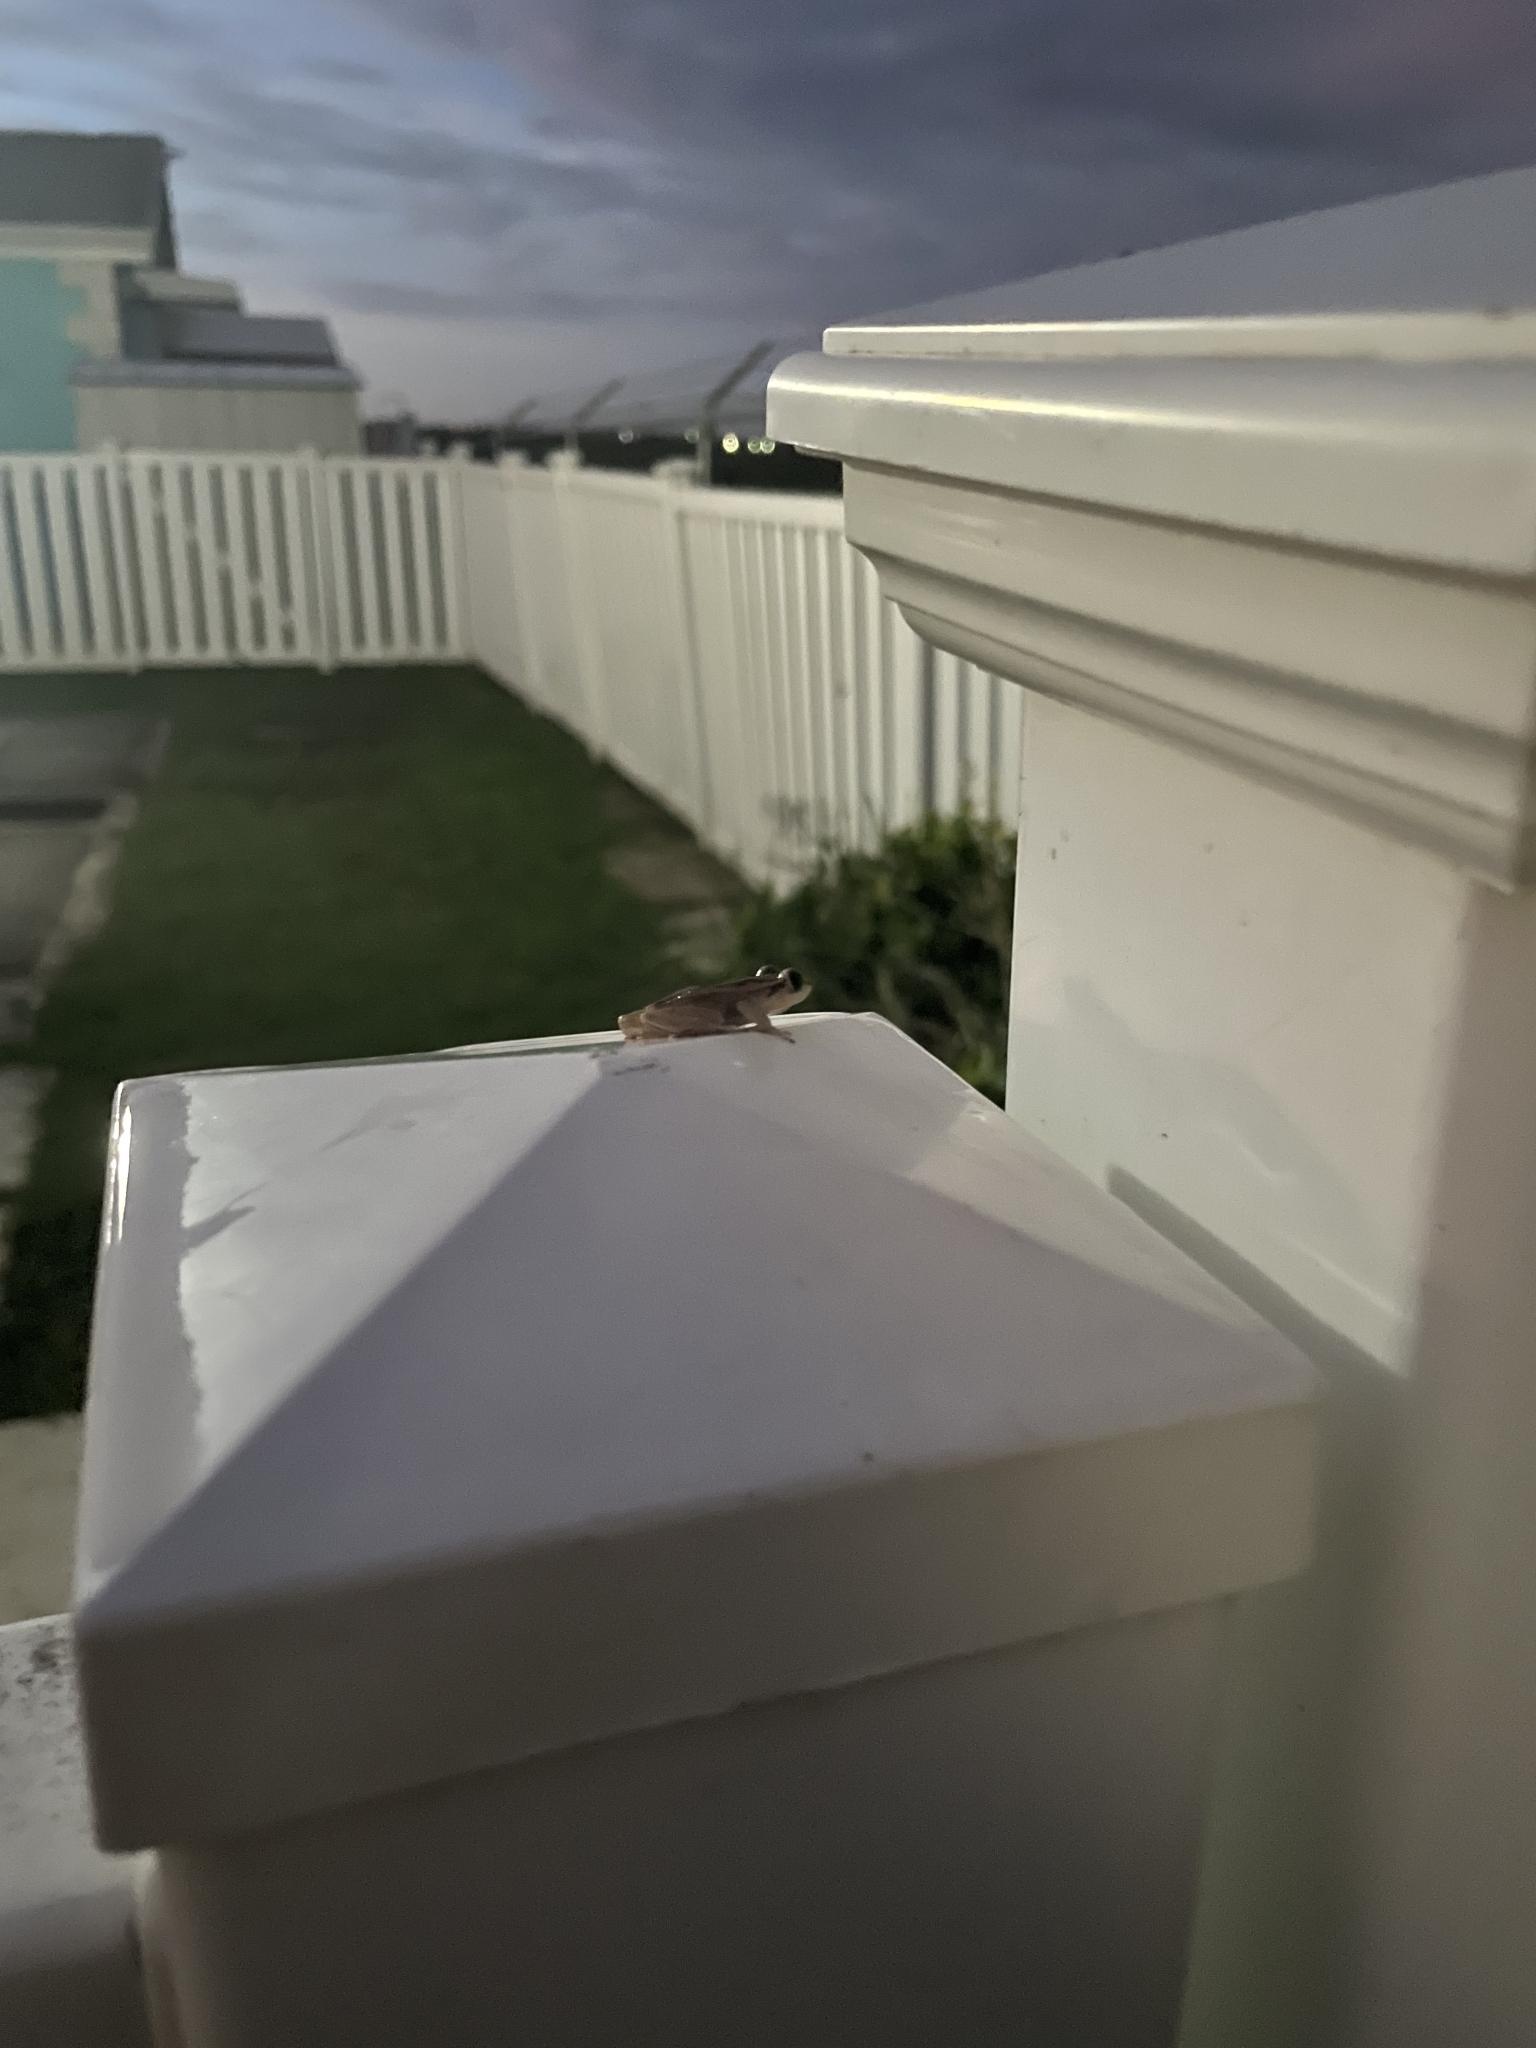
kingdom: Animalia
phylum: Chordata
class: Amphibia
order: Anura
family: Eleutherodactylidae
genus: Eleutherodactylus
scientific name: Eleutherodactylus johnstonei
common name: Johnstone's robber frog
